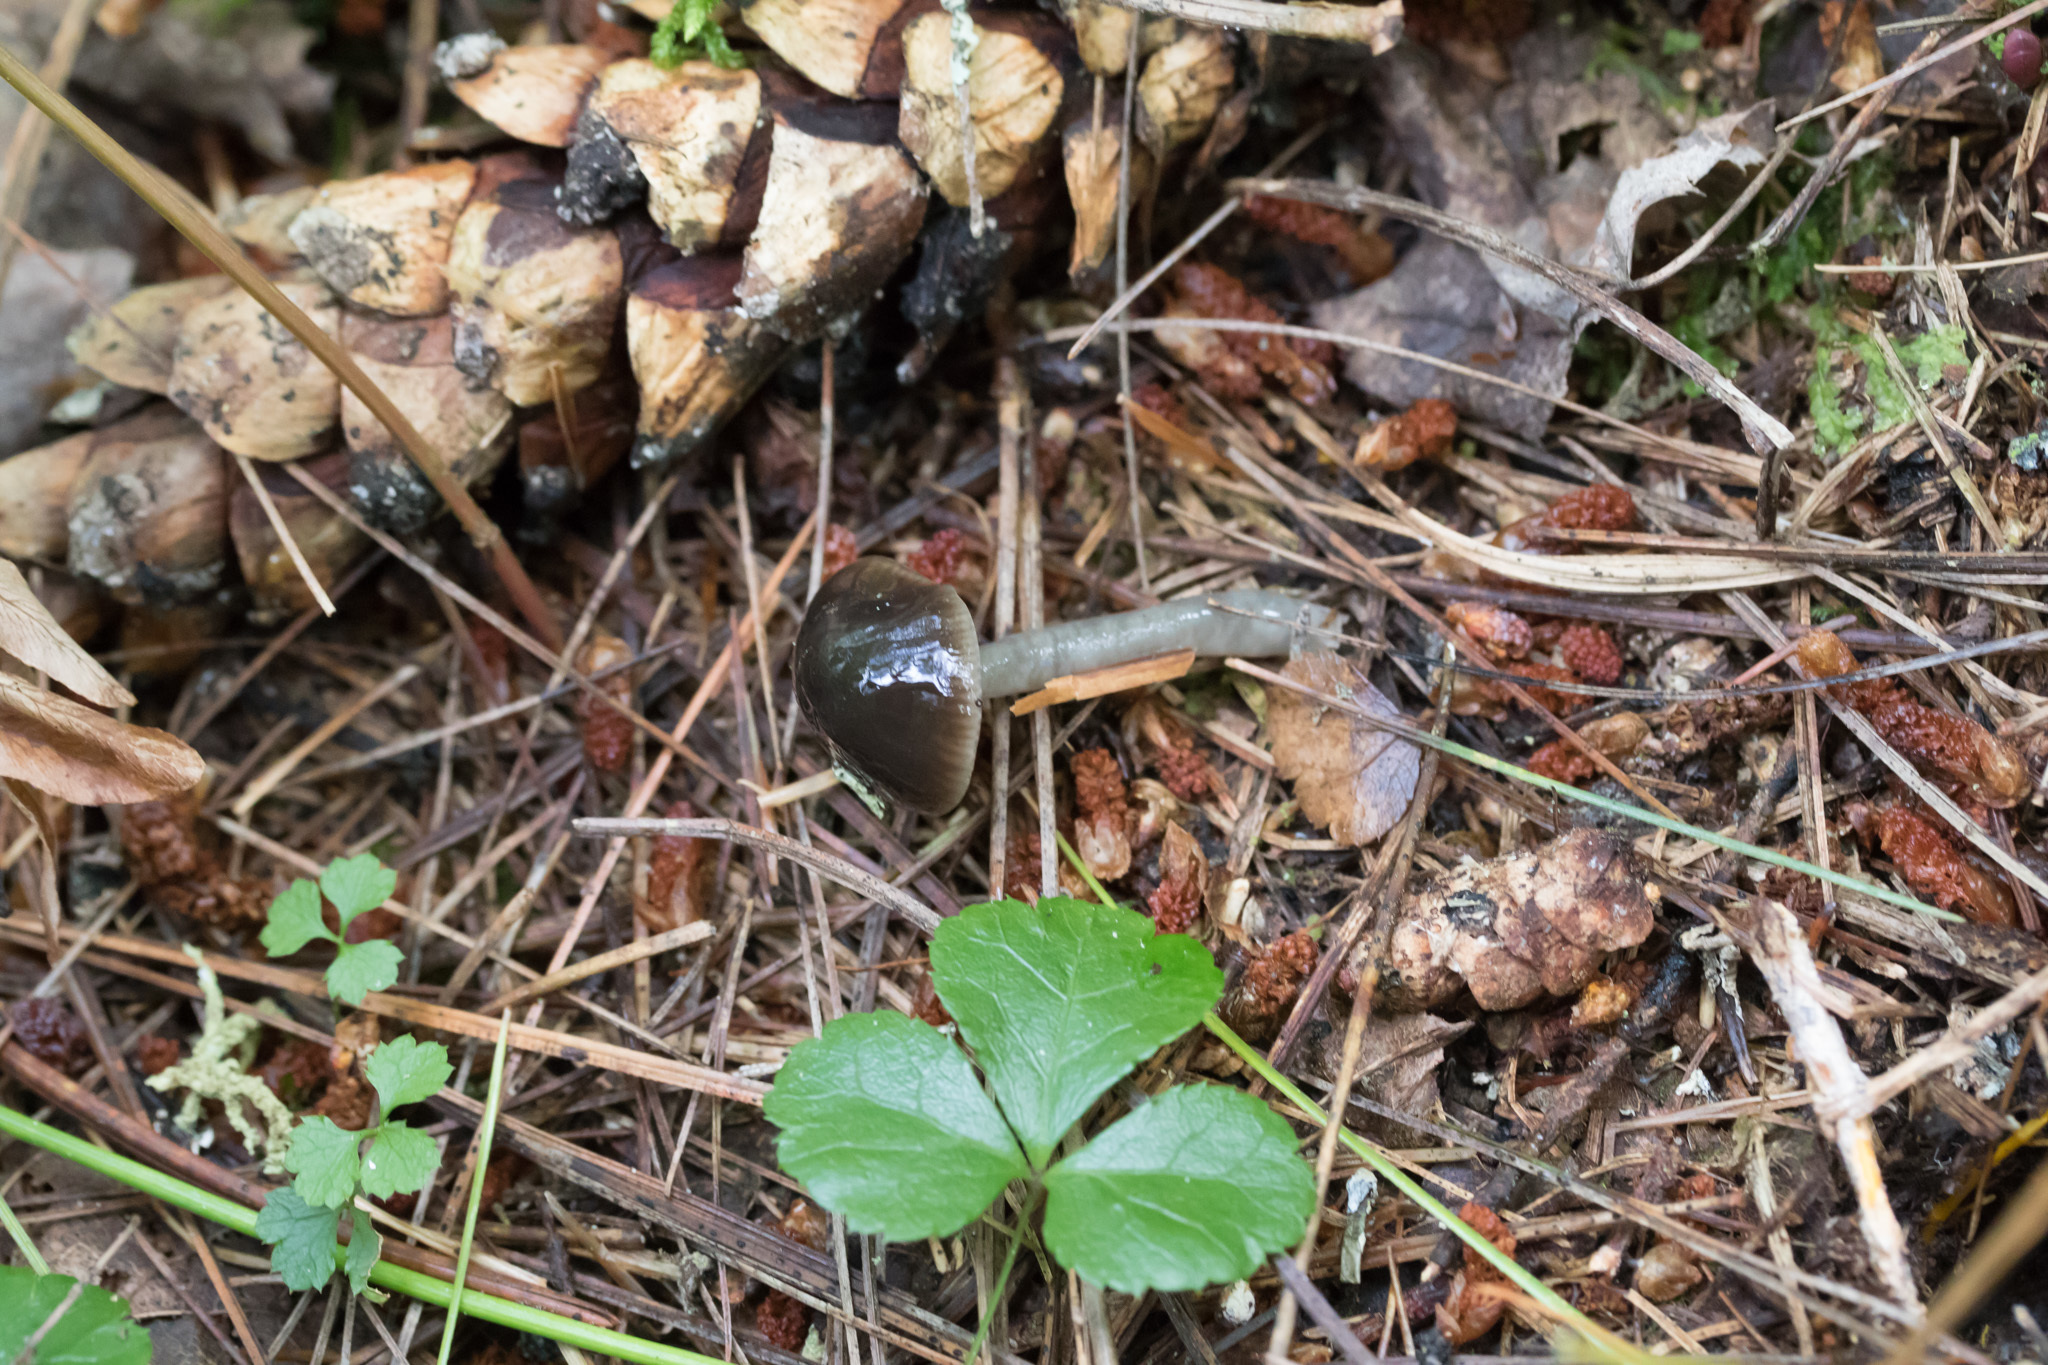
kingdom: Fungi
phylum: Basidiomycota
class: Agaricomycetes
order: Agaricales
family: Hygrophoraceae
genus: Gliophorus
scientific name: Gliophorus irrigatus
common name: Slimy waxcap
